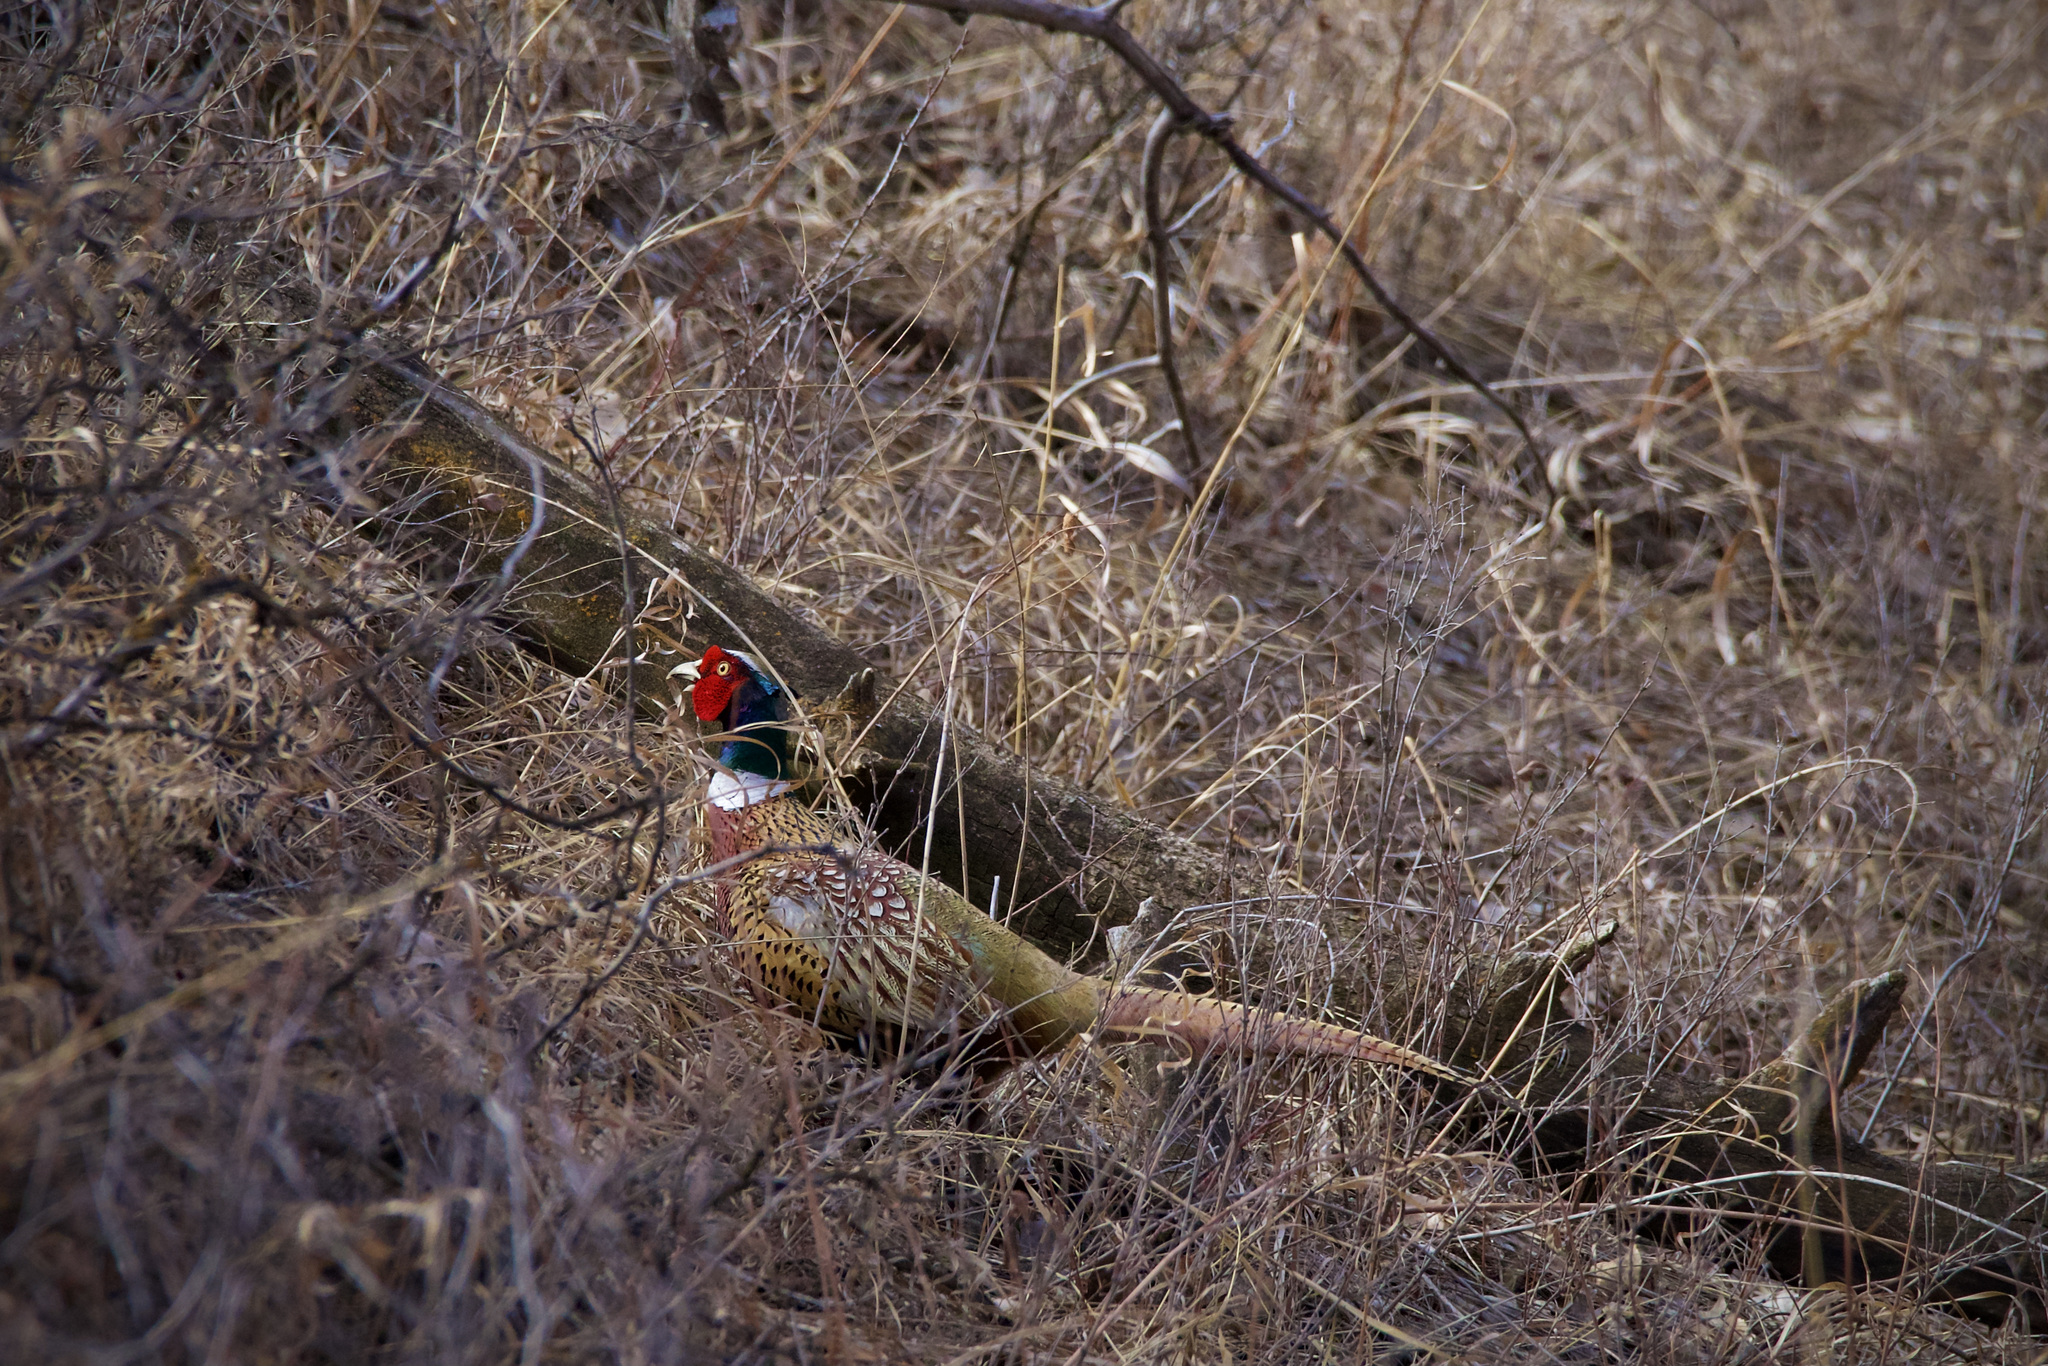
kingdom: Animalia
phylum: Chordata
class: Aves
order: Galliformes
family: Phasianidae
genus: Phasianus
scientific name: Phasianus colchicus
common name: Common pheasant
